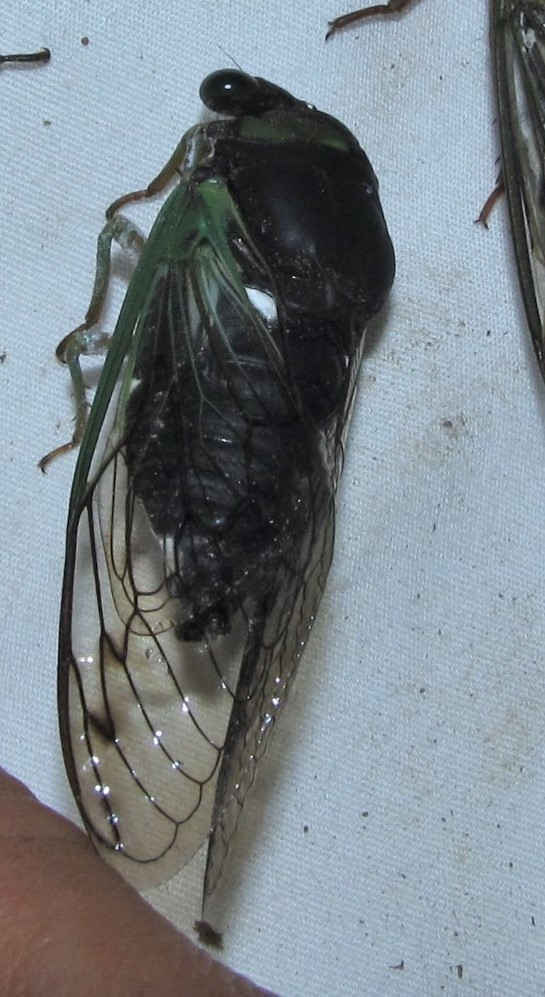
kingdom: Animalia
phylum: Arthropoda
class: Insecta
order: Hemiptera
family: Cicadidae
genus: Neotibicen
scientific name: Neotibicen tibicen
